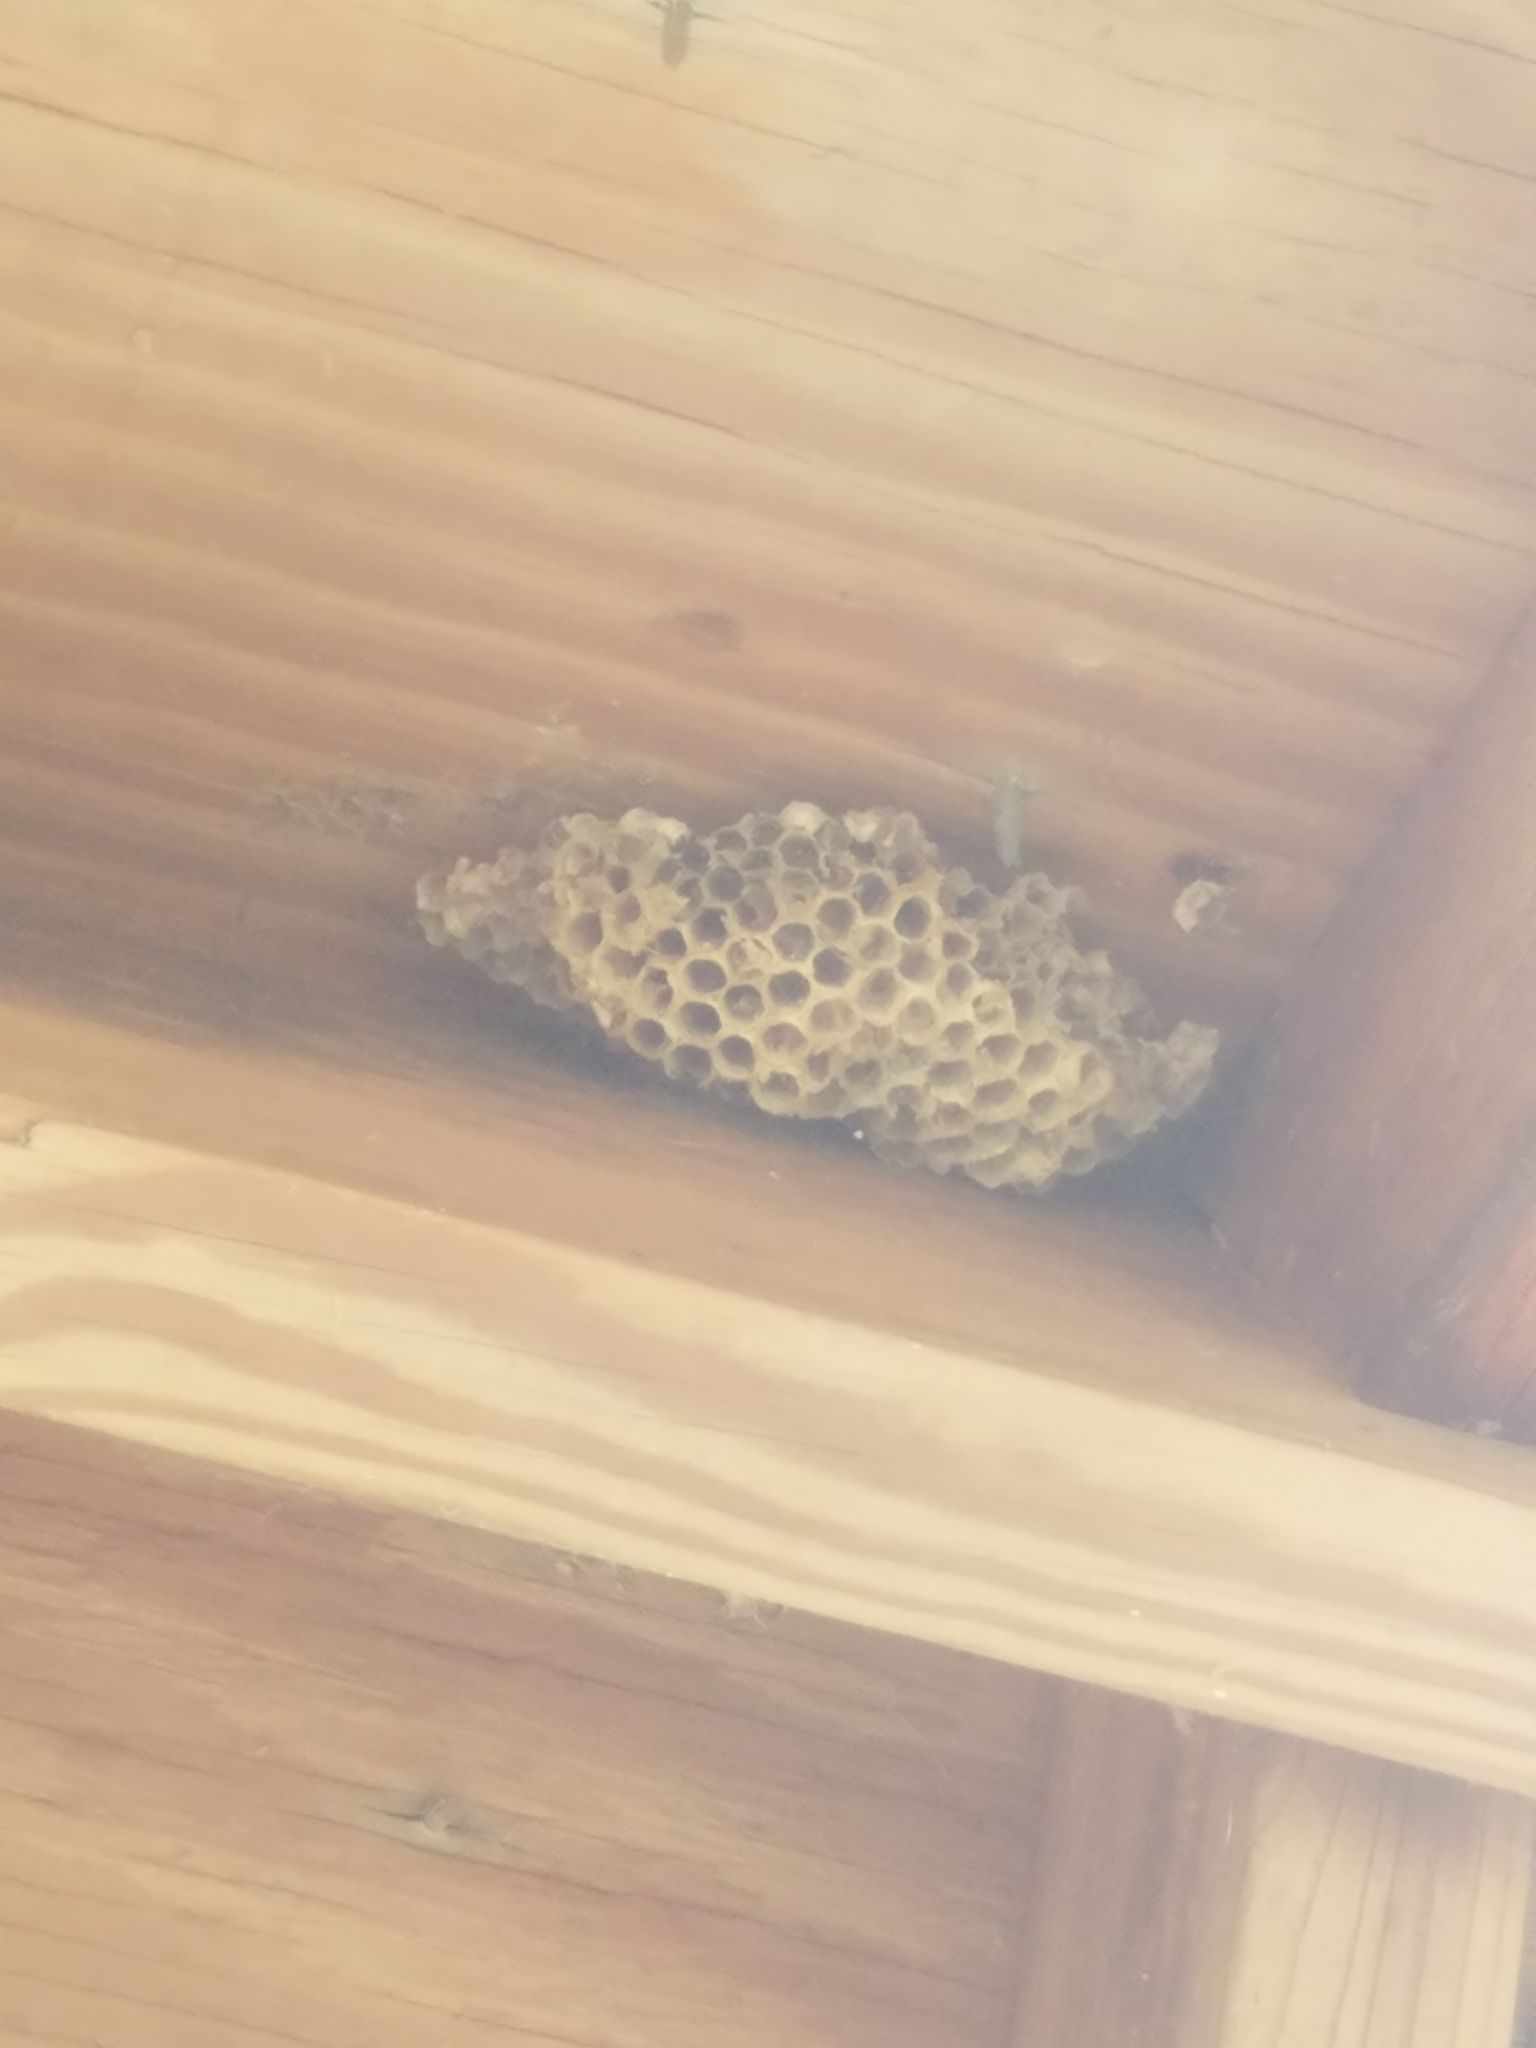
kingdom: Animalia
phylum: Arthropoda
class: Insecta
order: Hymenoptera
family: Eumenidae
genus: Polistes
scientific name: Polistes
